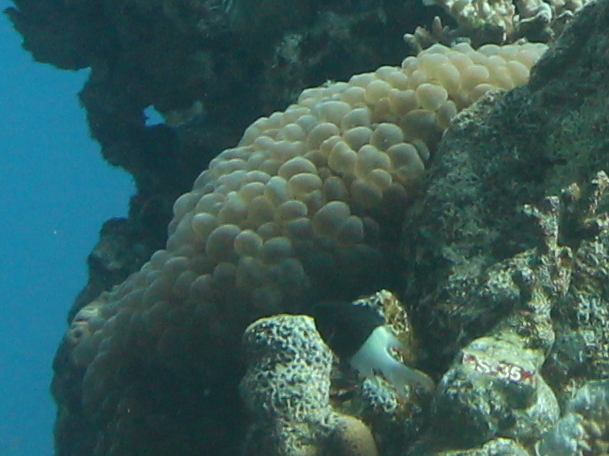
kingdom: Animalia
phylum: Cnidaria
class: Anthozoa
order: Scleractinia
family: Plerogyridae
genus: Plerogyra
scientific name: Plerogyra sinuosa
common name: Bubble coral
